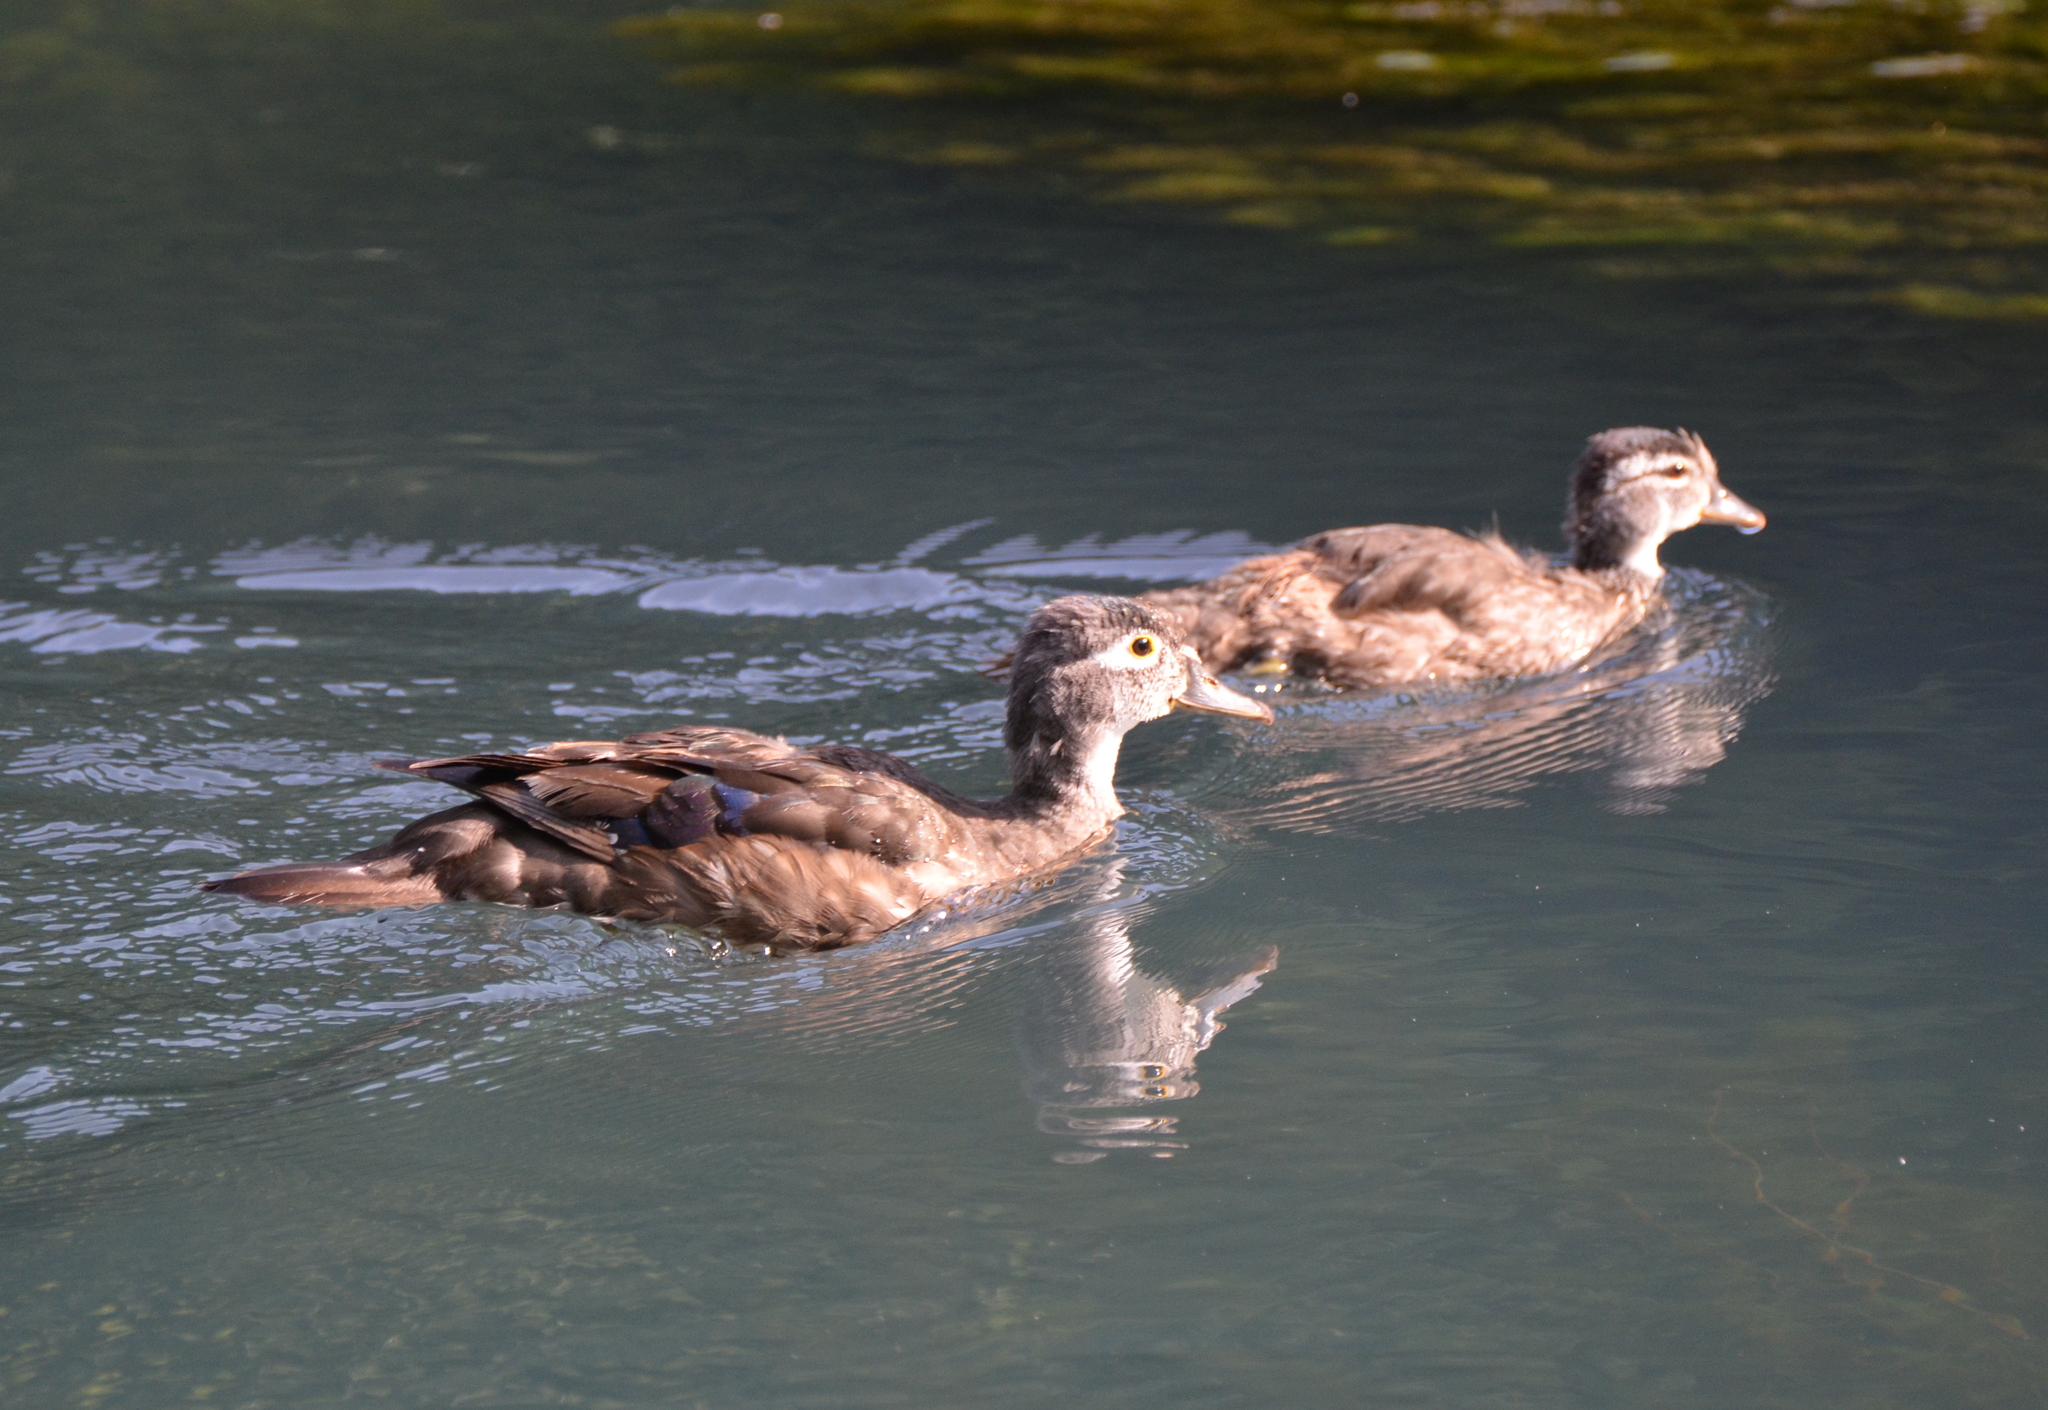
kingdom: Animalia
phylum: Chordata
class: Aves
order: Anseriformes
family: Anatidae
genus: Aix
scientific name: Aix sponsa
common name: Wood duck
